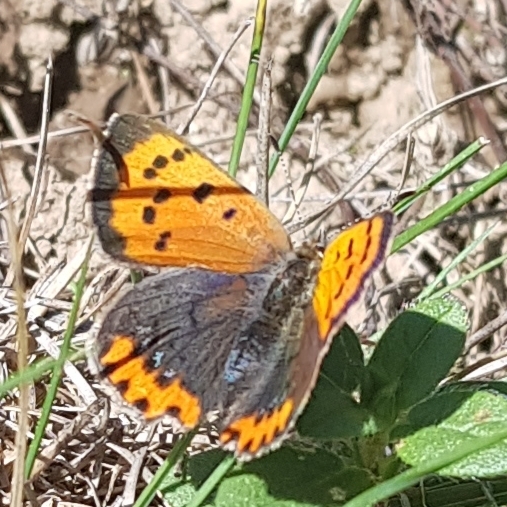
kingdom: Animalia
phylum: Arthropoda
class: Insecta
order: Lepidoptera
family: Lycaenidae
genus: Lycaena
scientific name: Lycaena phlaeas
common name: Small copper
